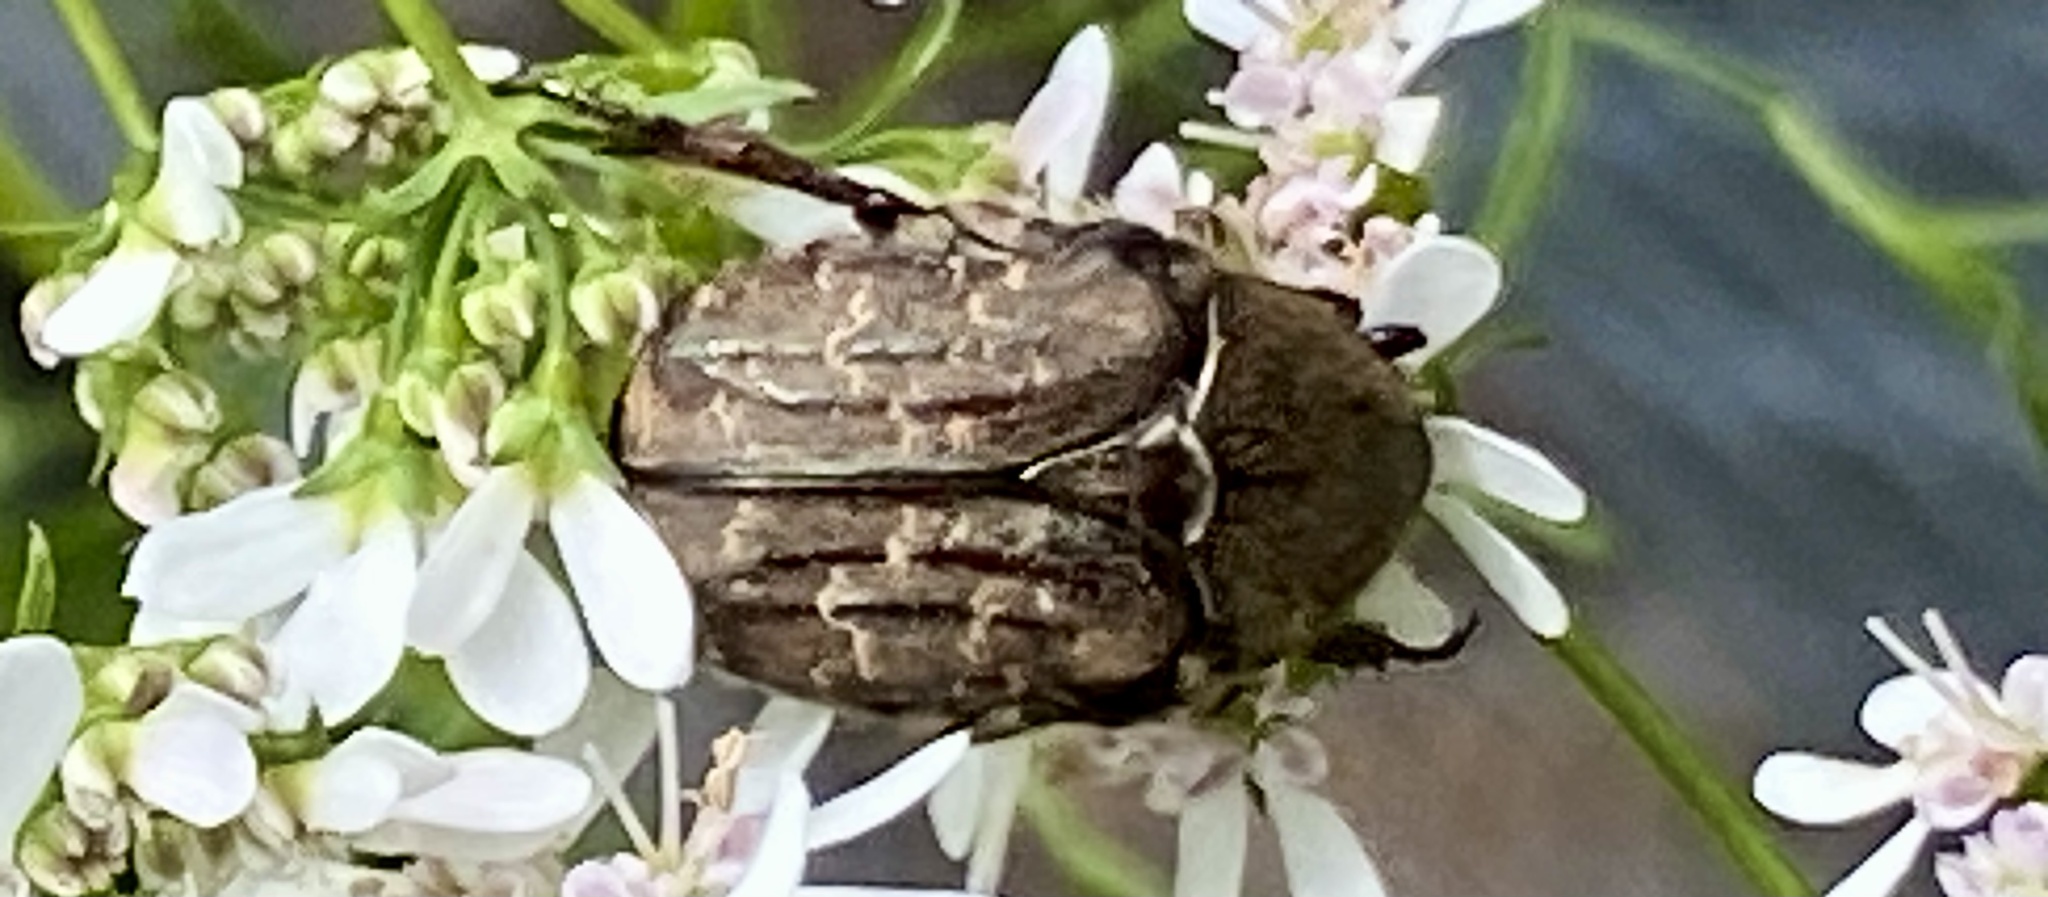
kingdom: Animalia
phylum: Arthropoda
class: Insecta
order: Coleoptera
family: Scarabaeidae
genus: Euphoria
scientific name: Euphoria sepulcralis
